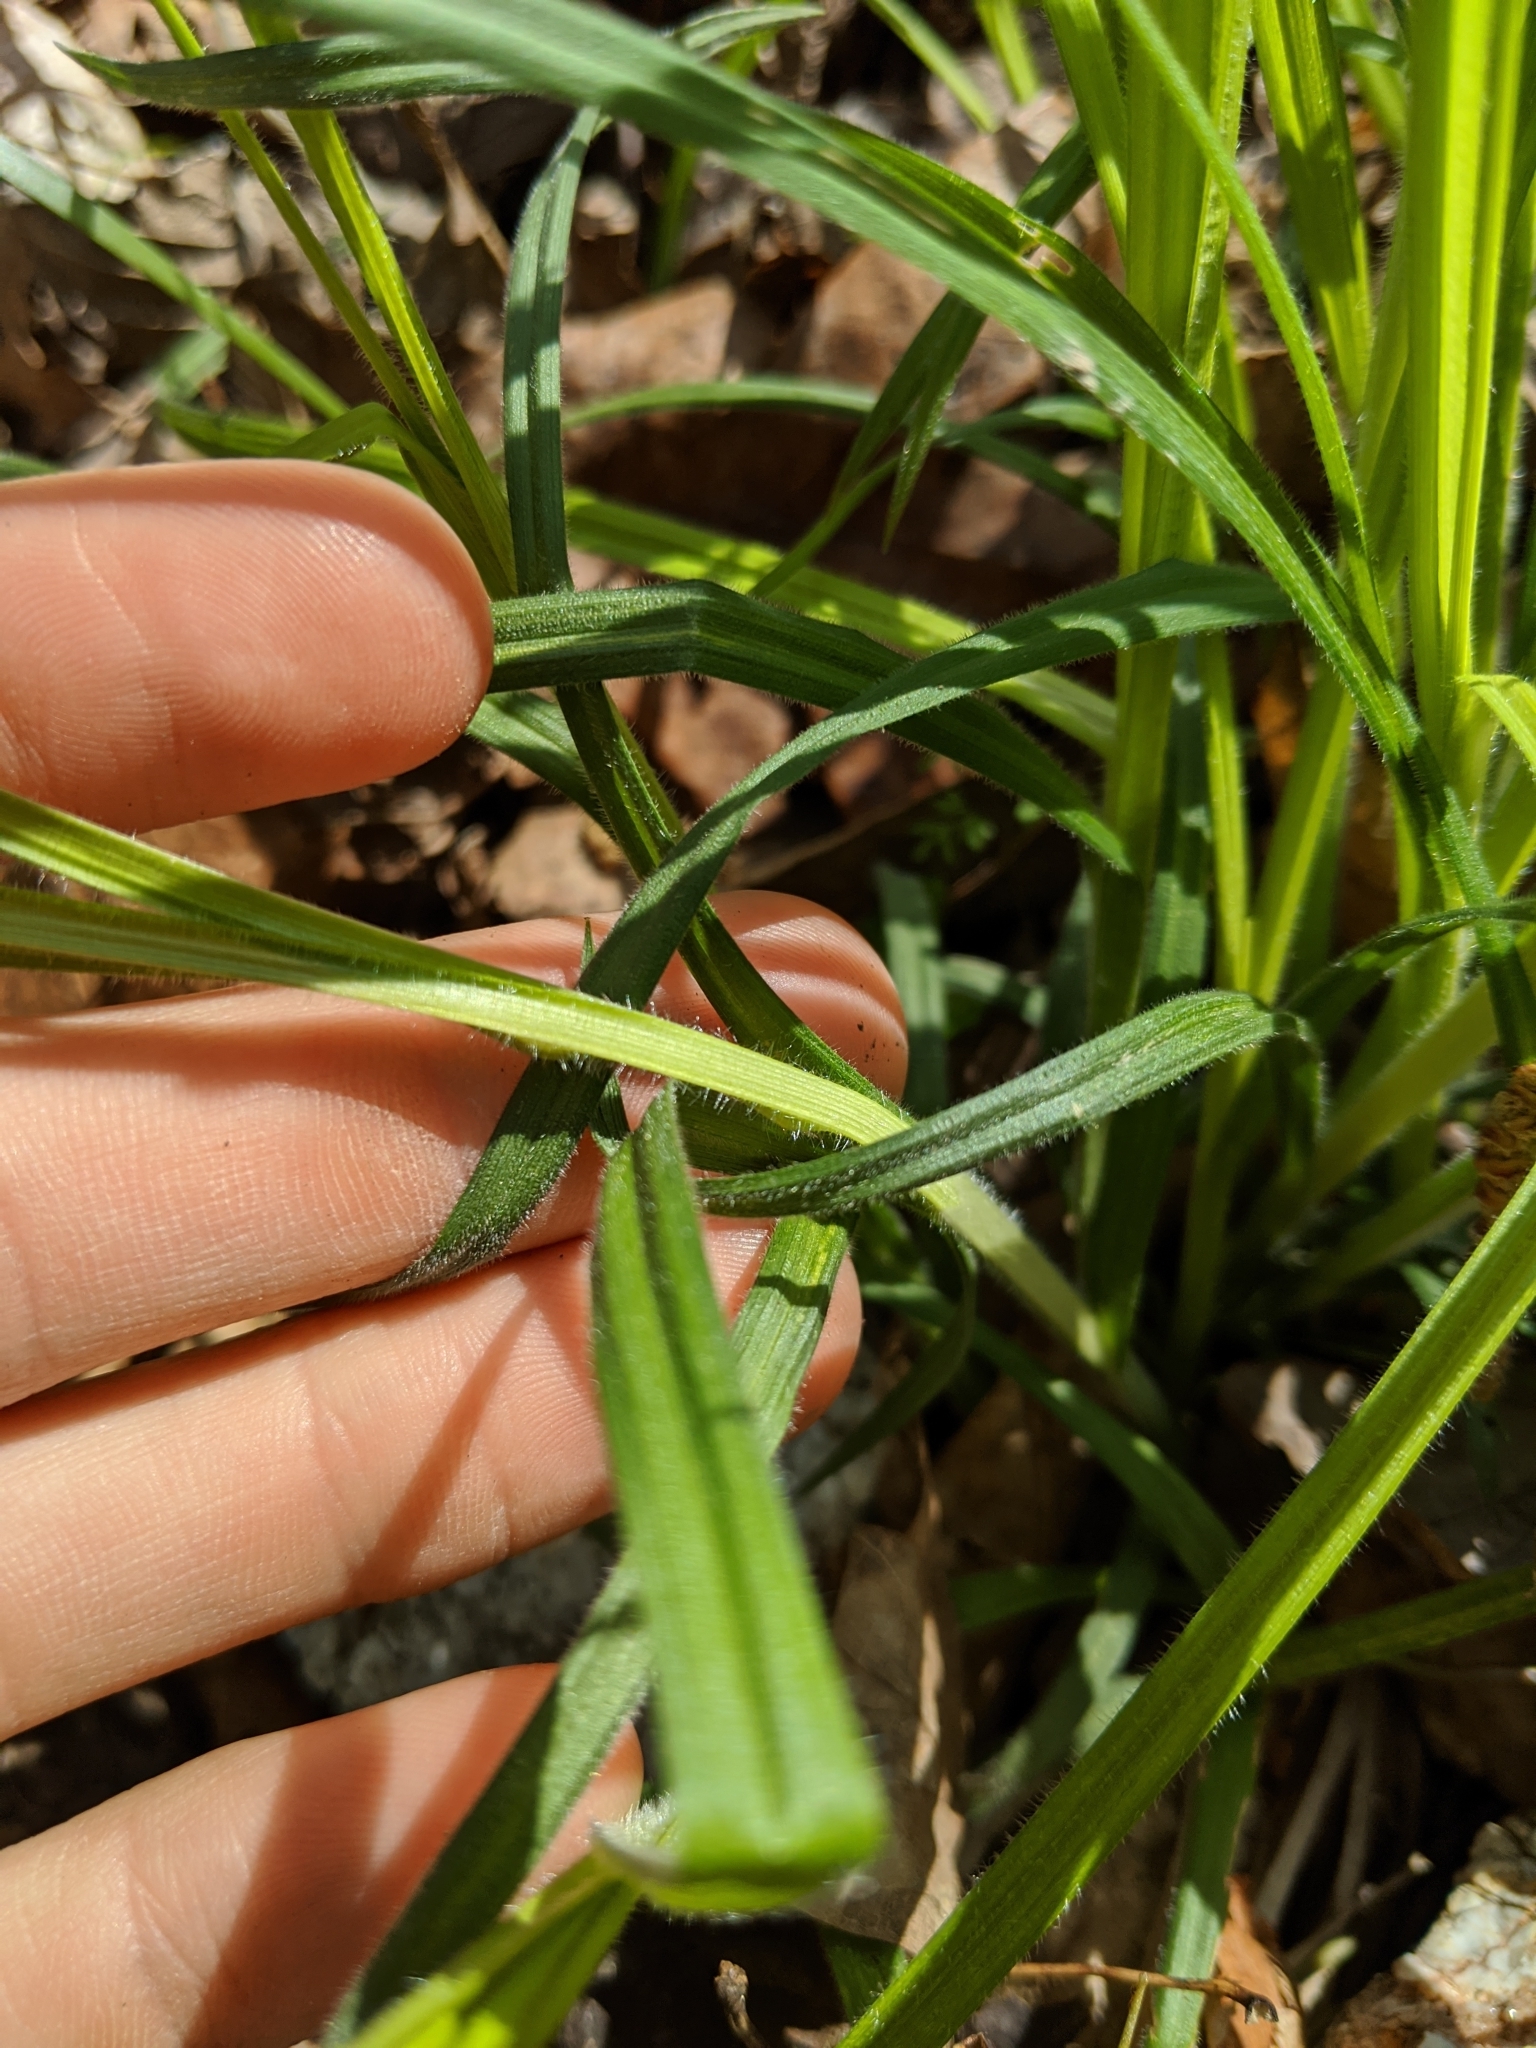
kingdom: Plantae
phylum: Tracheophyta
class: Liliopsida
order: Poales
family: Cyperaceae
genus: Carex
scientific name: Carex hirtifolia
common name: Hairy sedge
